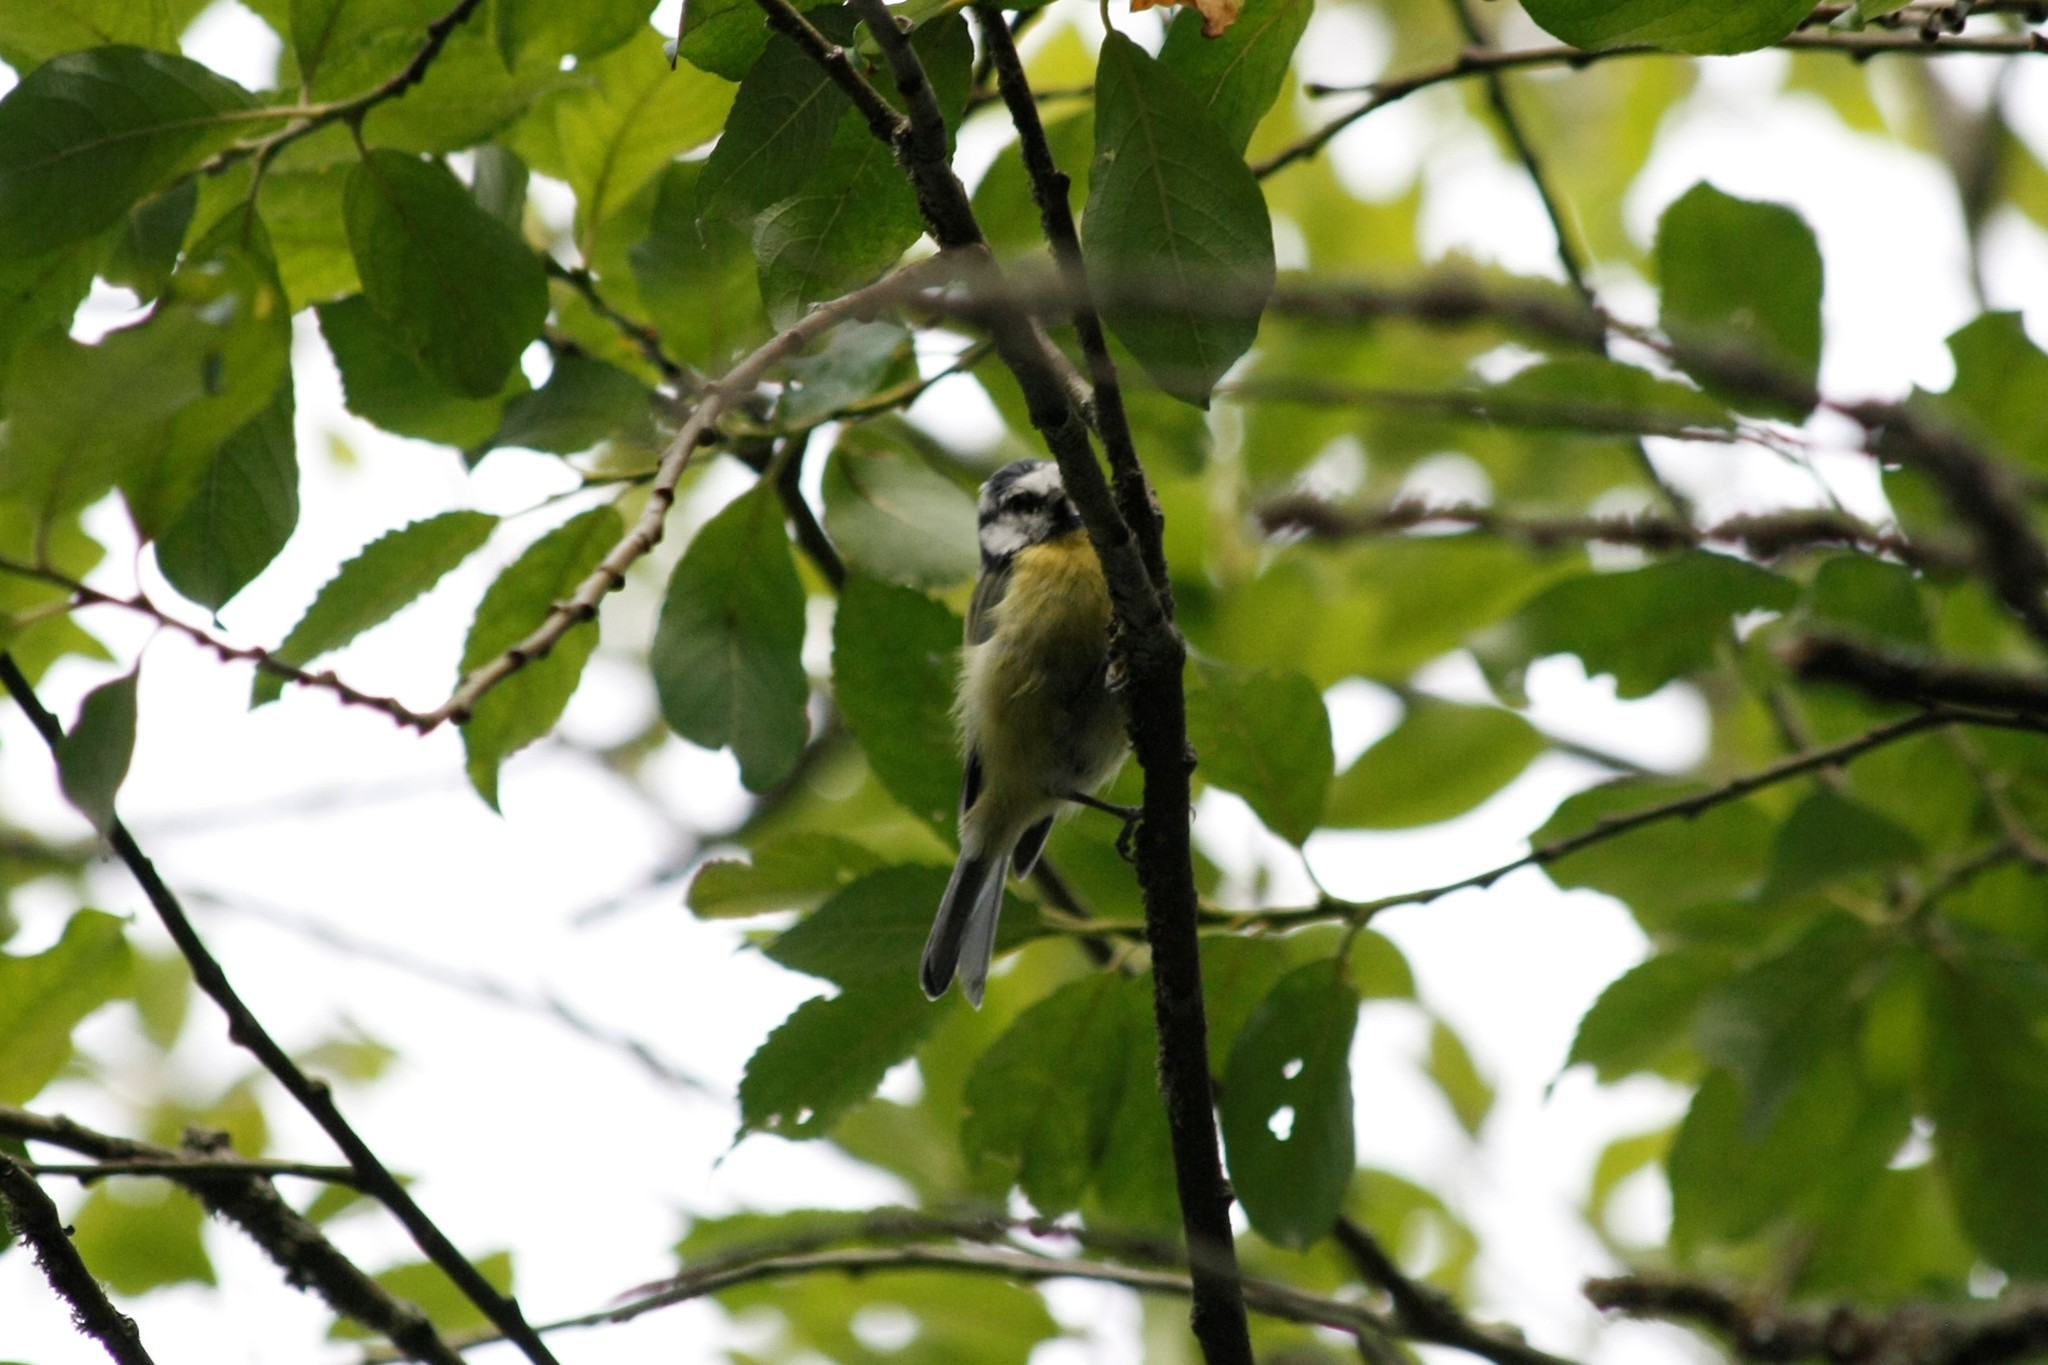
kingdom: Animalia
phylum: Chordata
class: Aves
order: Passeriformes
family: Paridae
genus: Cyanistes
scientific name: Cyanistes caeruleus
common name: Eurasian blue tit
